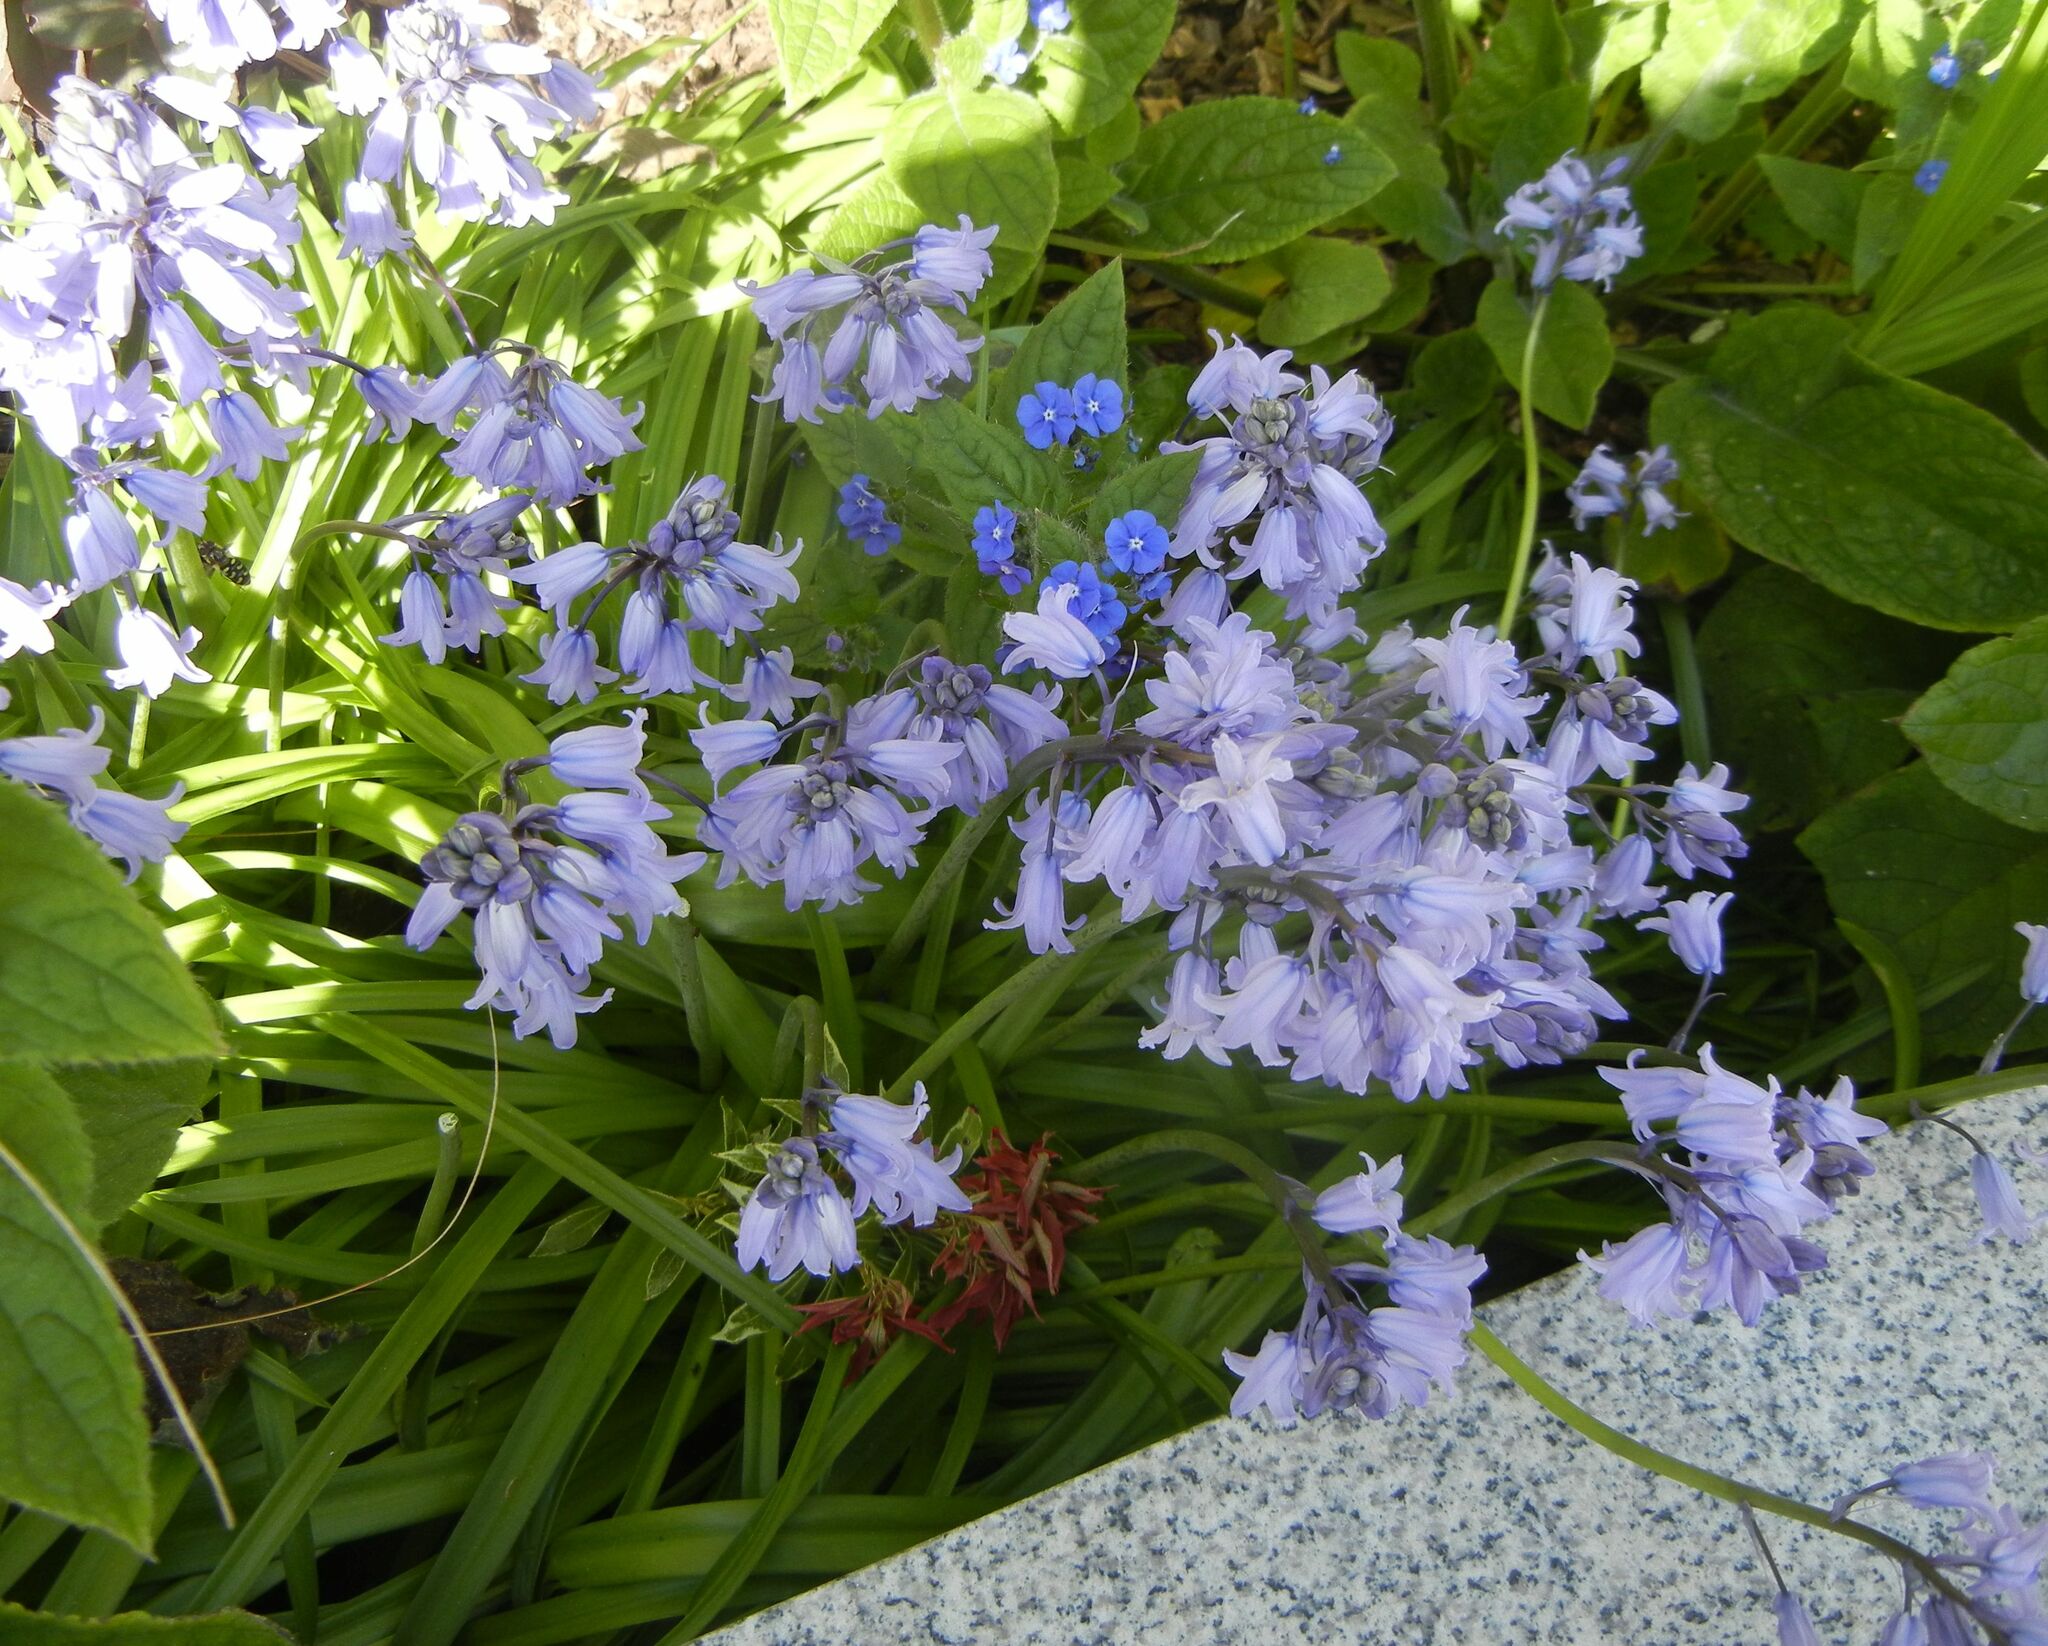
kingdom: Plantae
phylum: Tracheophyta
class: Liliopsida
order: Asparagales
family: Asparagaceae
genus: Hyacinthoides
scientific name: Hyacinthoides massartiana
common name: Hyacinthoides
